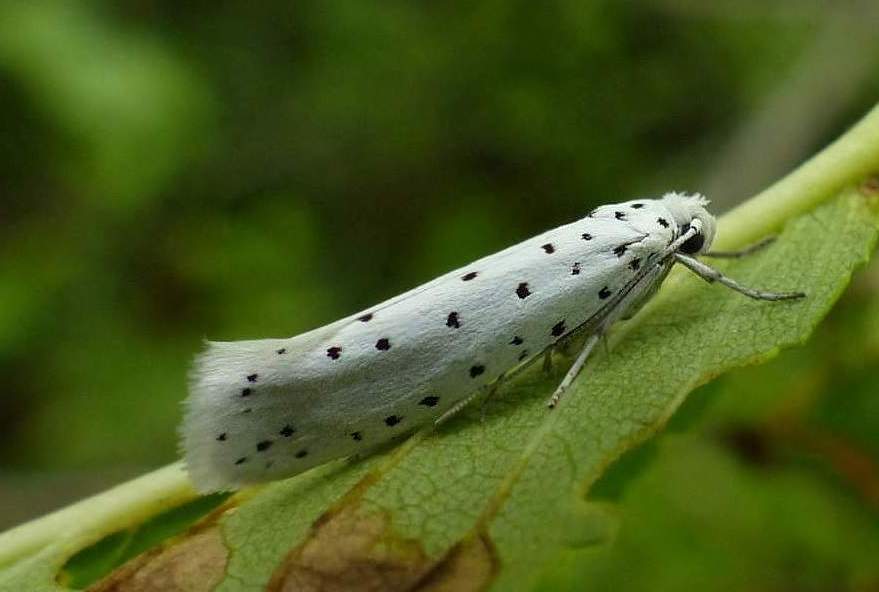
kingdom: Animalia
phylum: Arthropoda
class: Insecta
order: Lepidoptera
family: Yponomeutidae
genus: Yponomeuta
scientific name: Yponomeuta padella
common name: Orchard ermine
